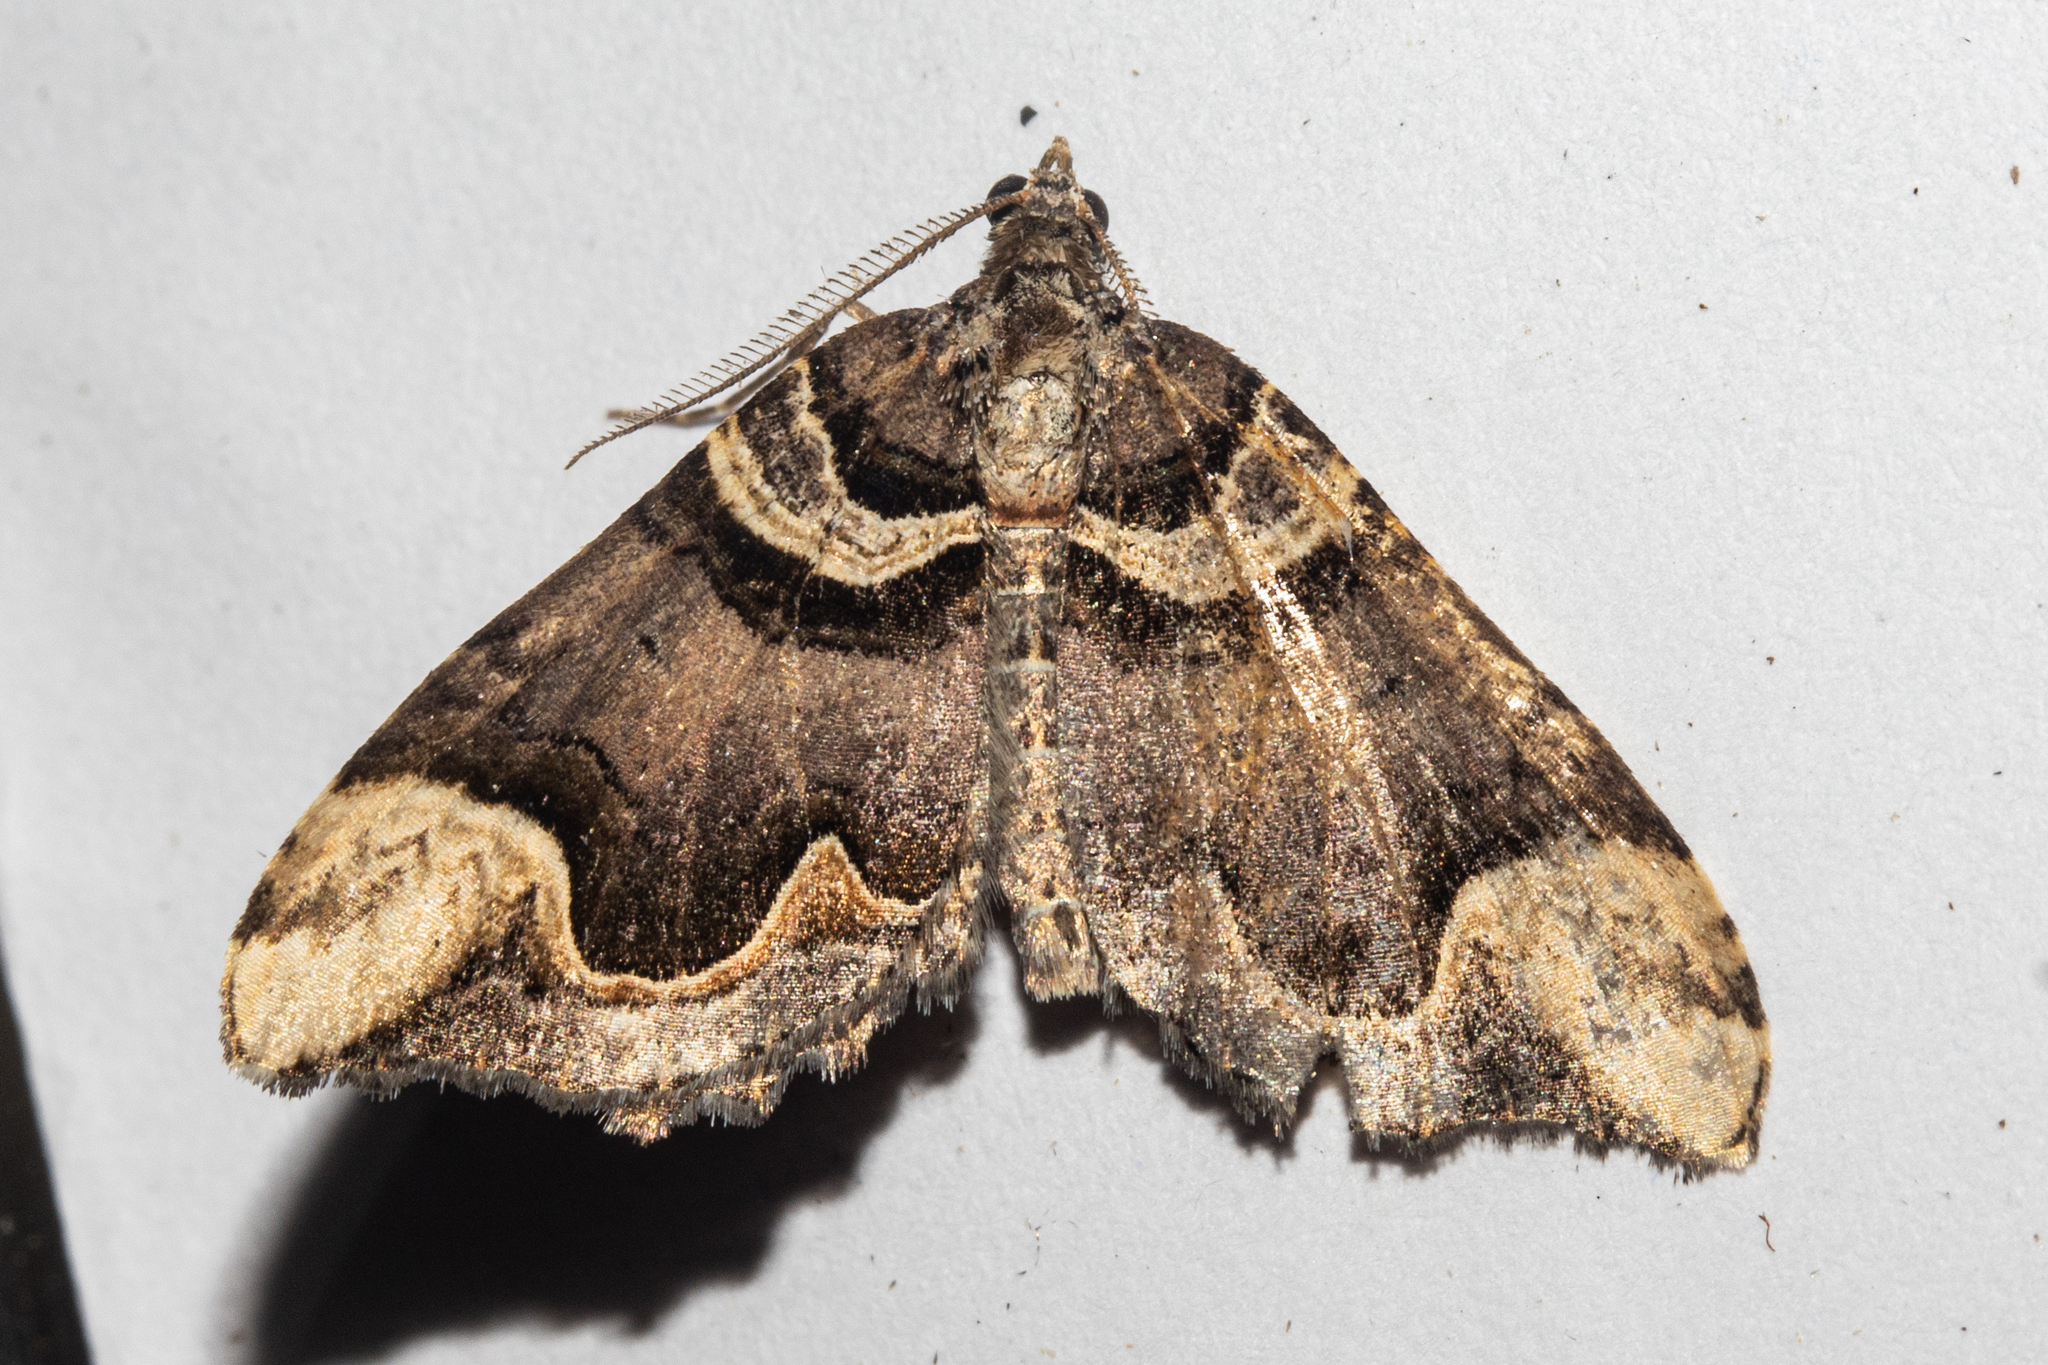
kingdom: Animalia
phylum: Arthropoda
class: Insecta
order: Lepidoptera
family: Geometridae
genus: Asaphodes
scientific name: Asaphodes chlamydota
